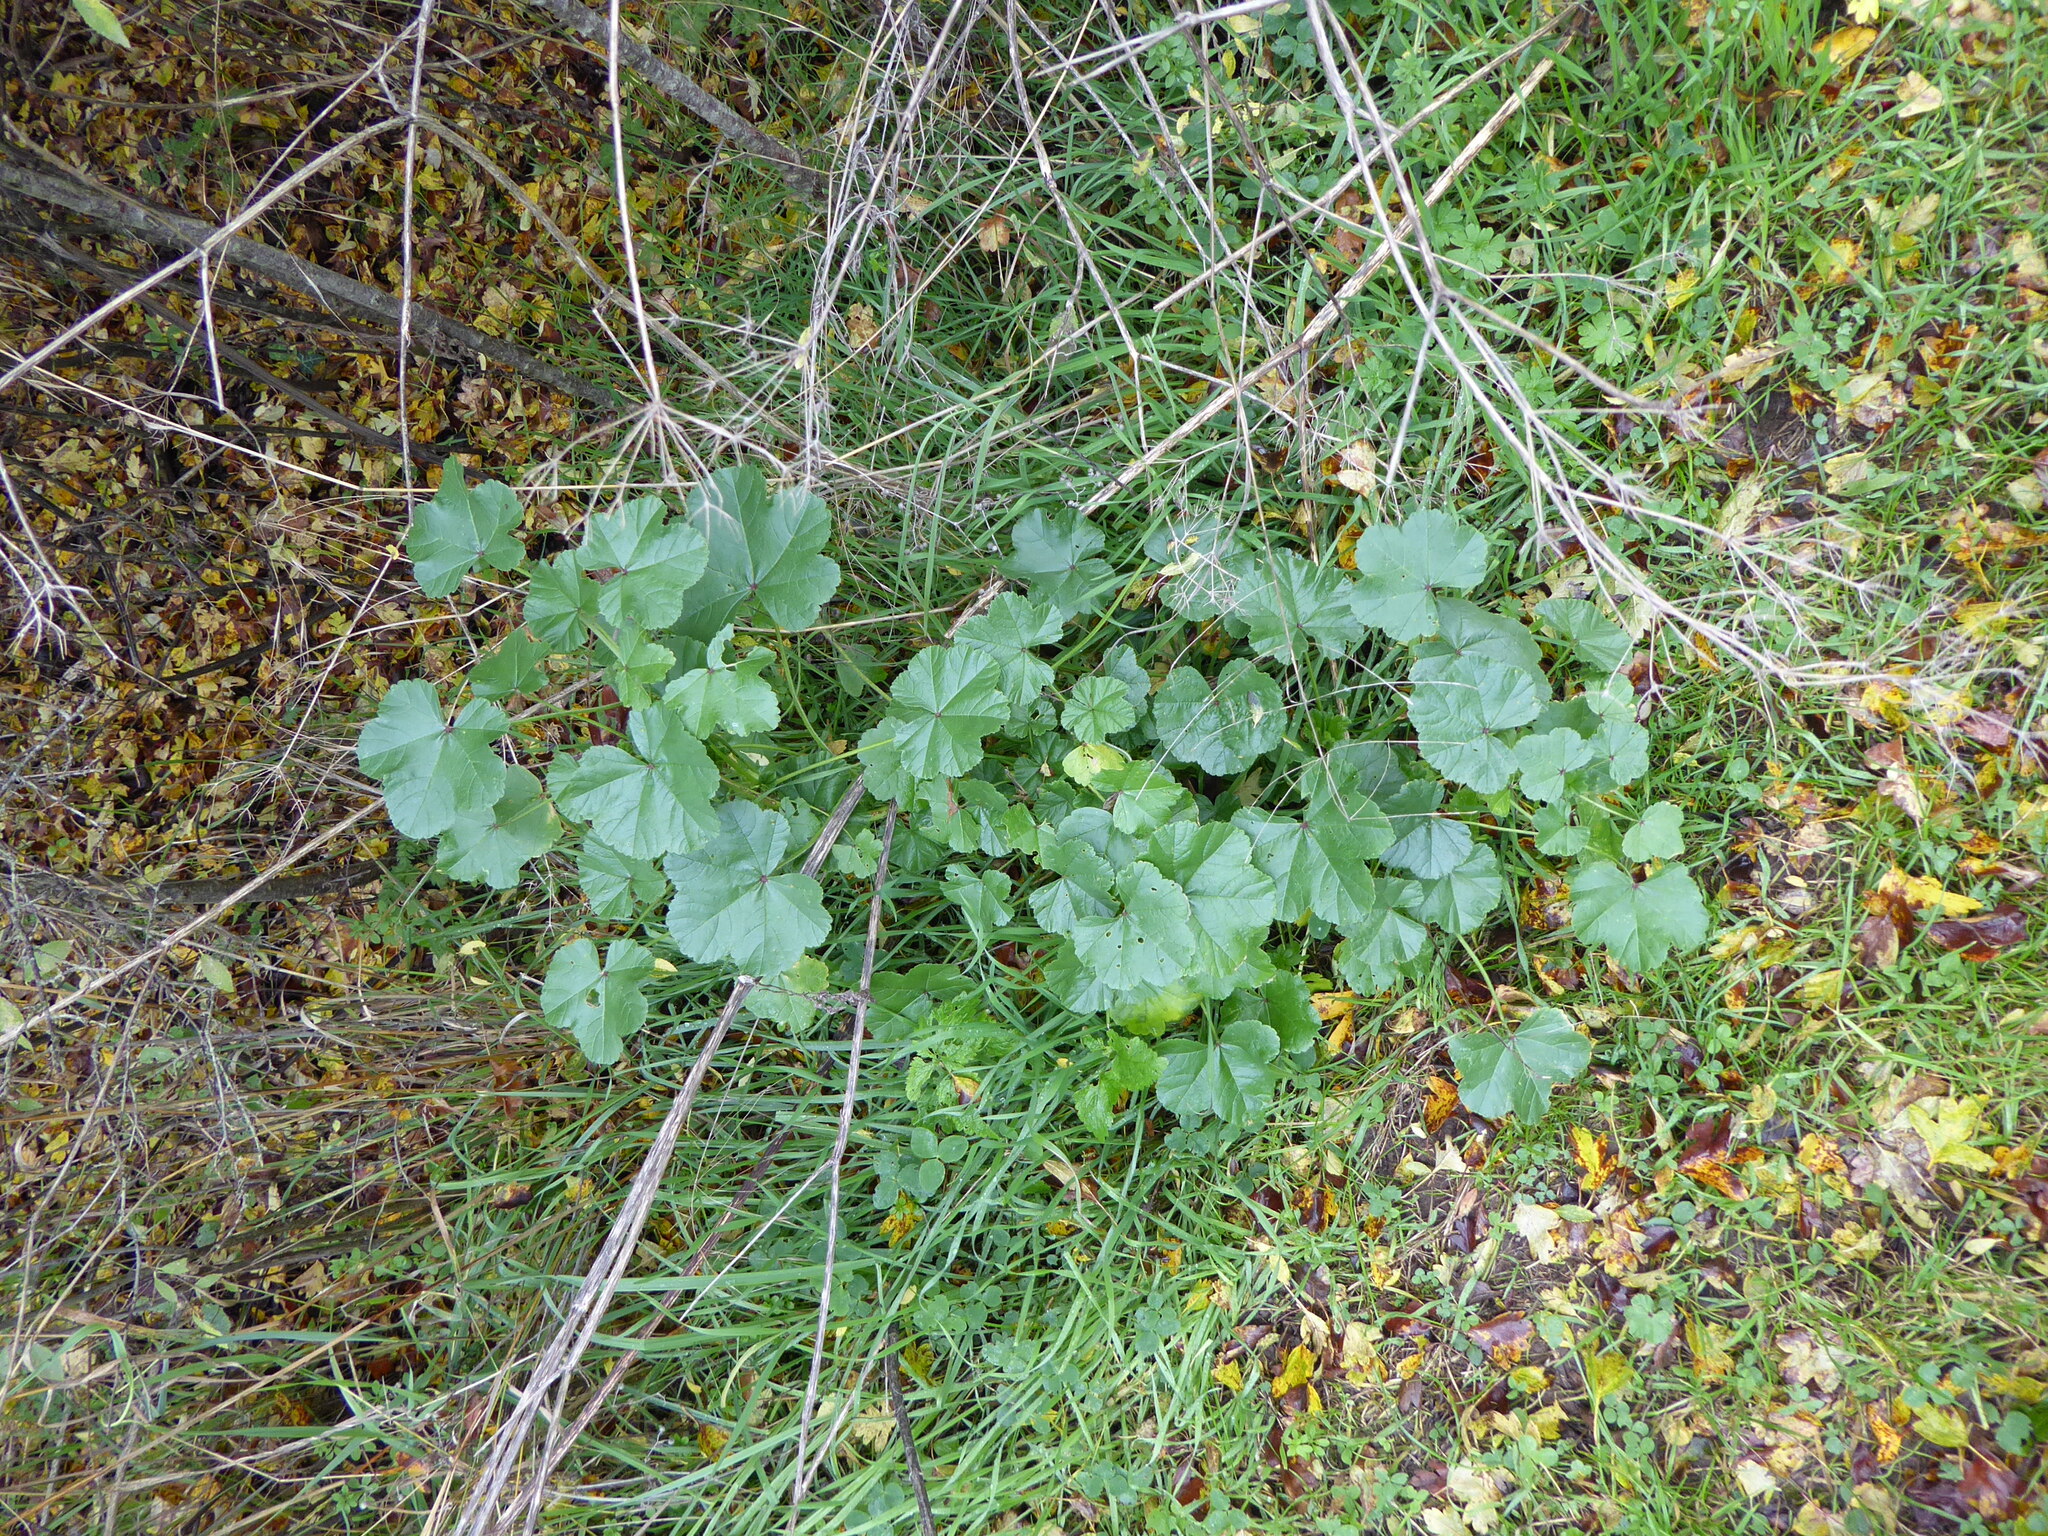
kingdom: Plantae
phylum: Tracheophyta
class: Magnoliopsida
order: Malvales
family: Malvaceae
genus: Malva
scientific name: Malva sylvestris
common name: Common mallow
